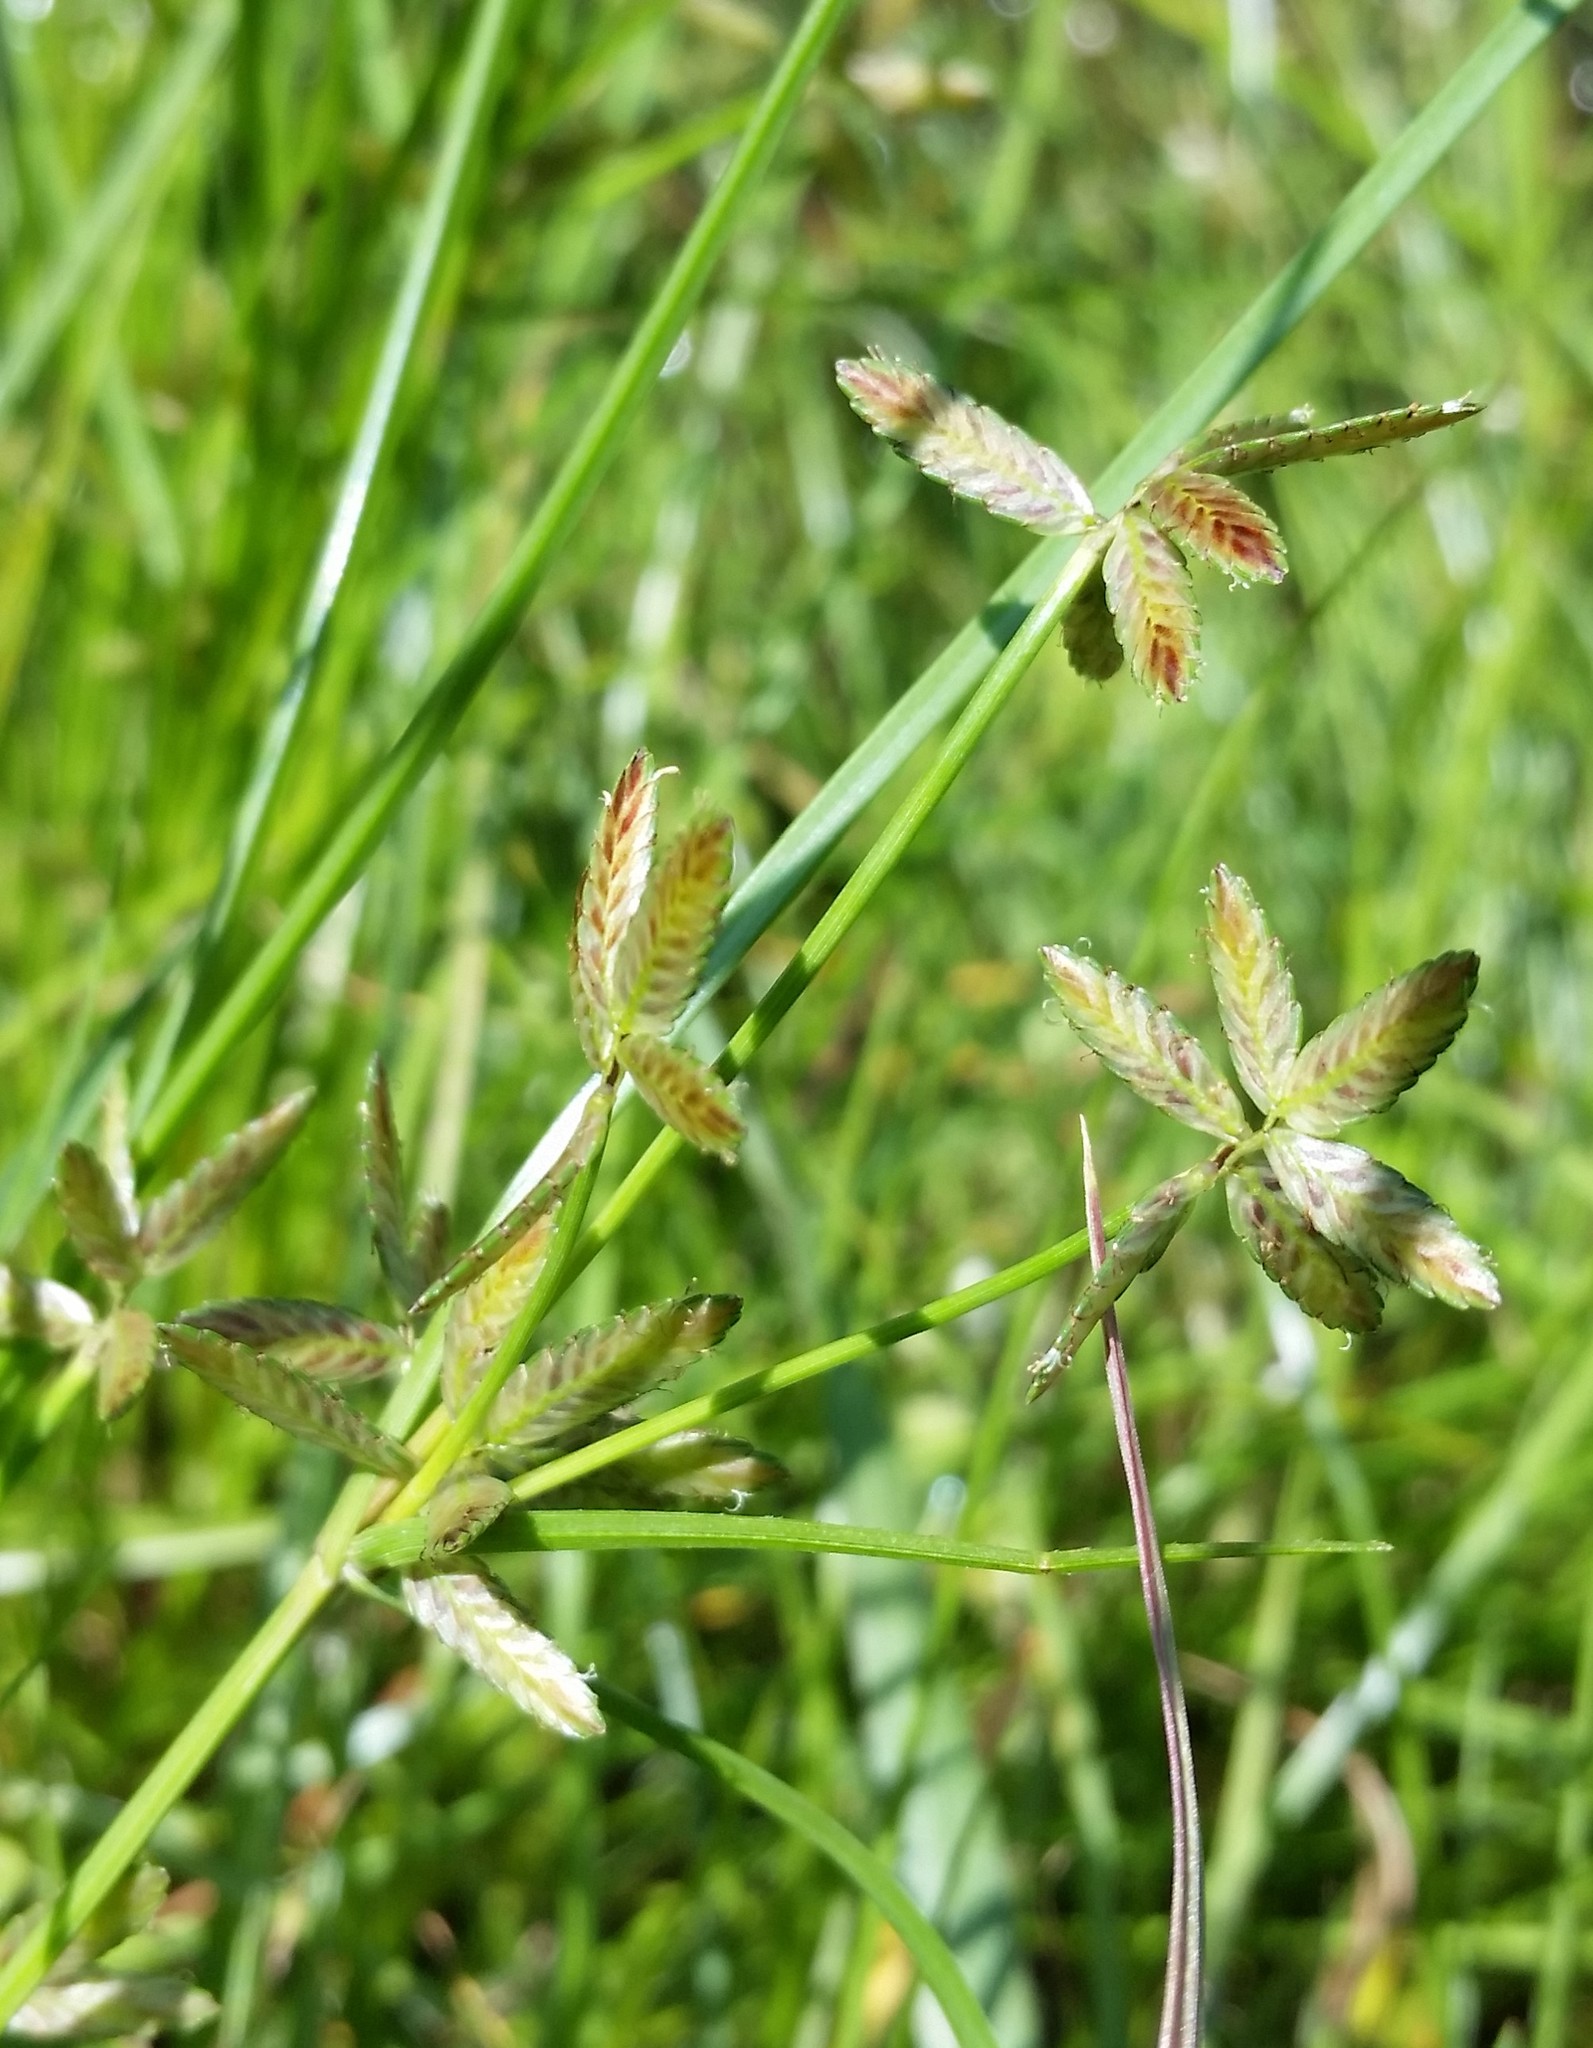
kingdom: Plantae
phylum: Tracheophyta
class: Liliopsida
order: Poales
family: Cyperaceae
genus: Cyperus
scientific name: Cyperus bipartitus
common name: Brook flatsedge
